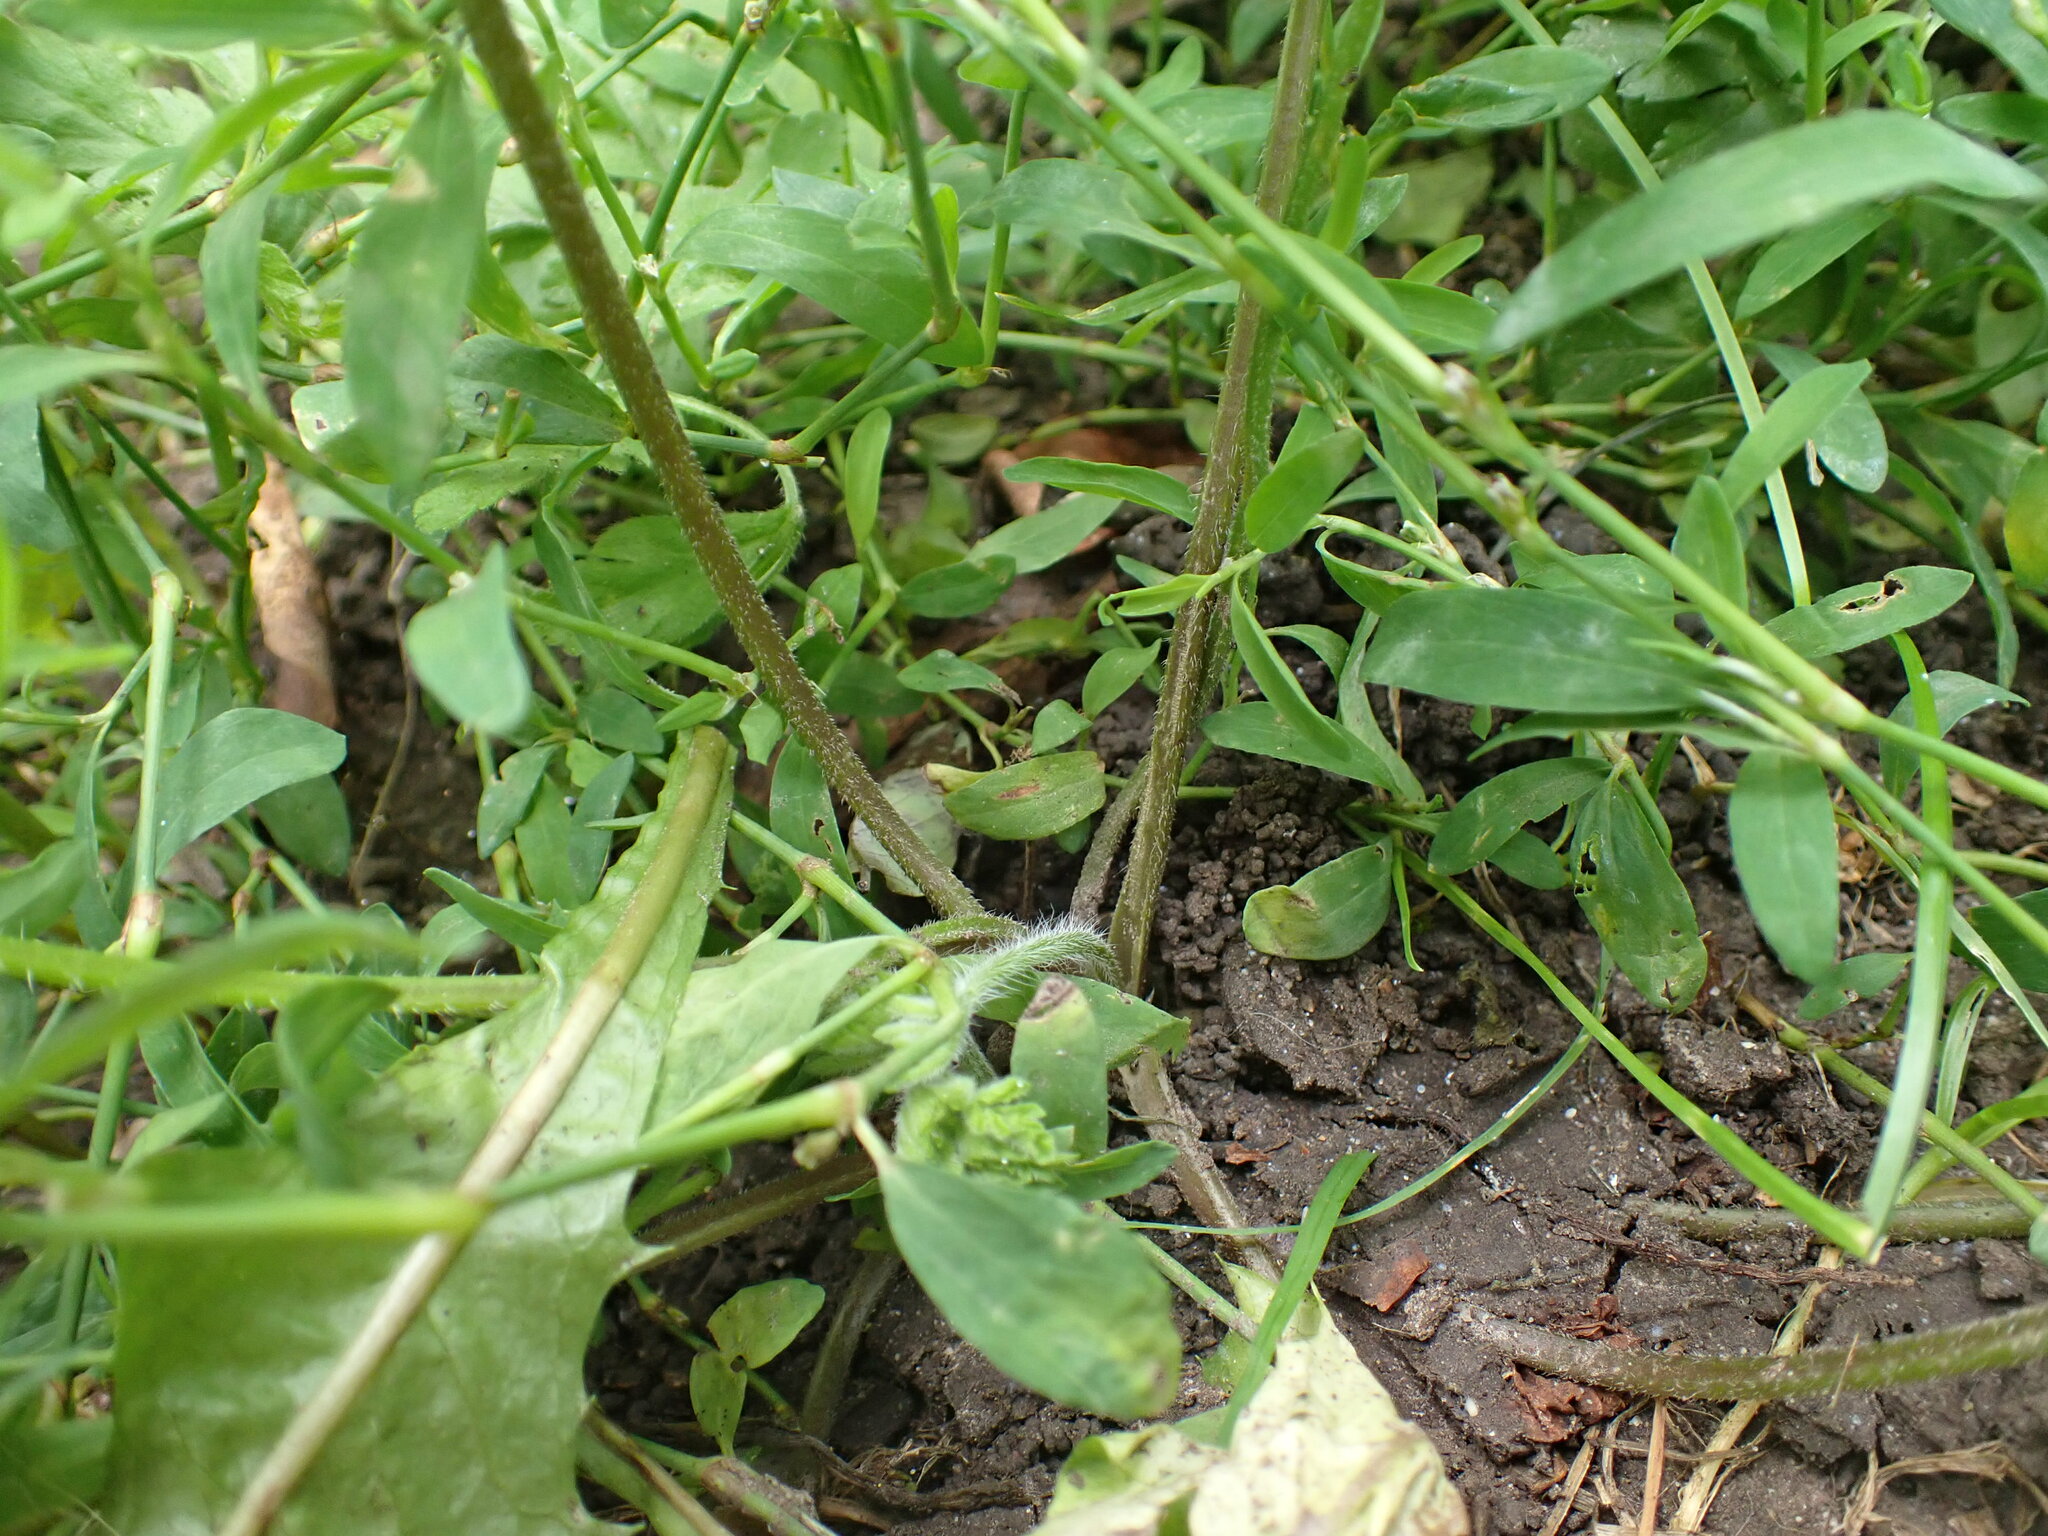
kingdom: Plantae
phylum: Tracheophyta
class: Magnoliopsida
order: Apiales
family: Apiaceae
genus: Chaerophyllum
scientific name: Chaerophyllum temulum
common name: Rough chervil
